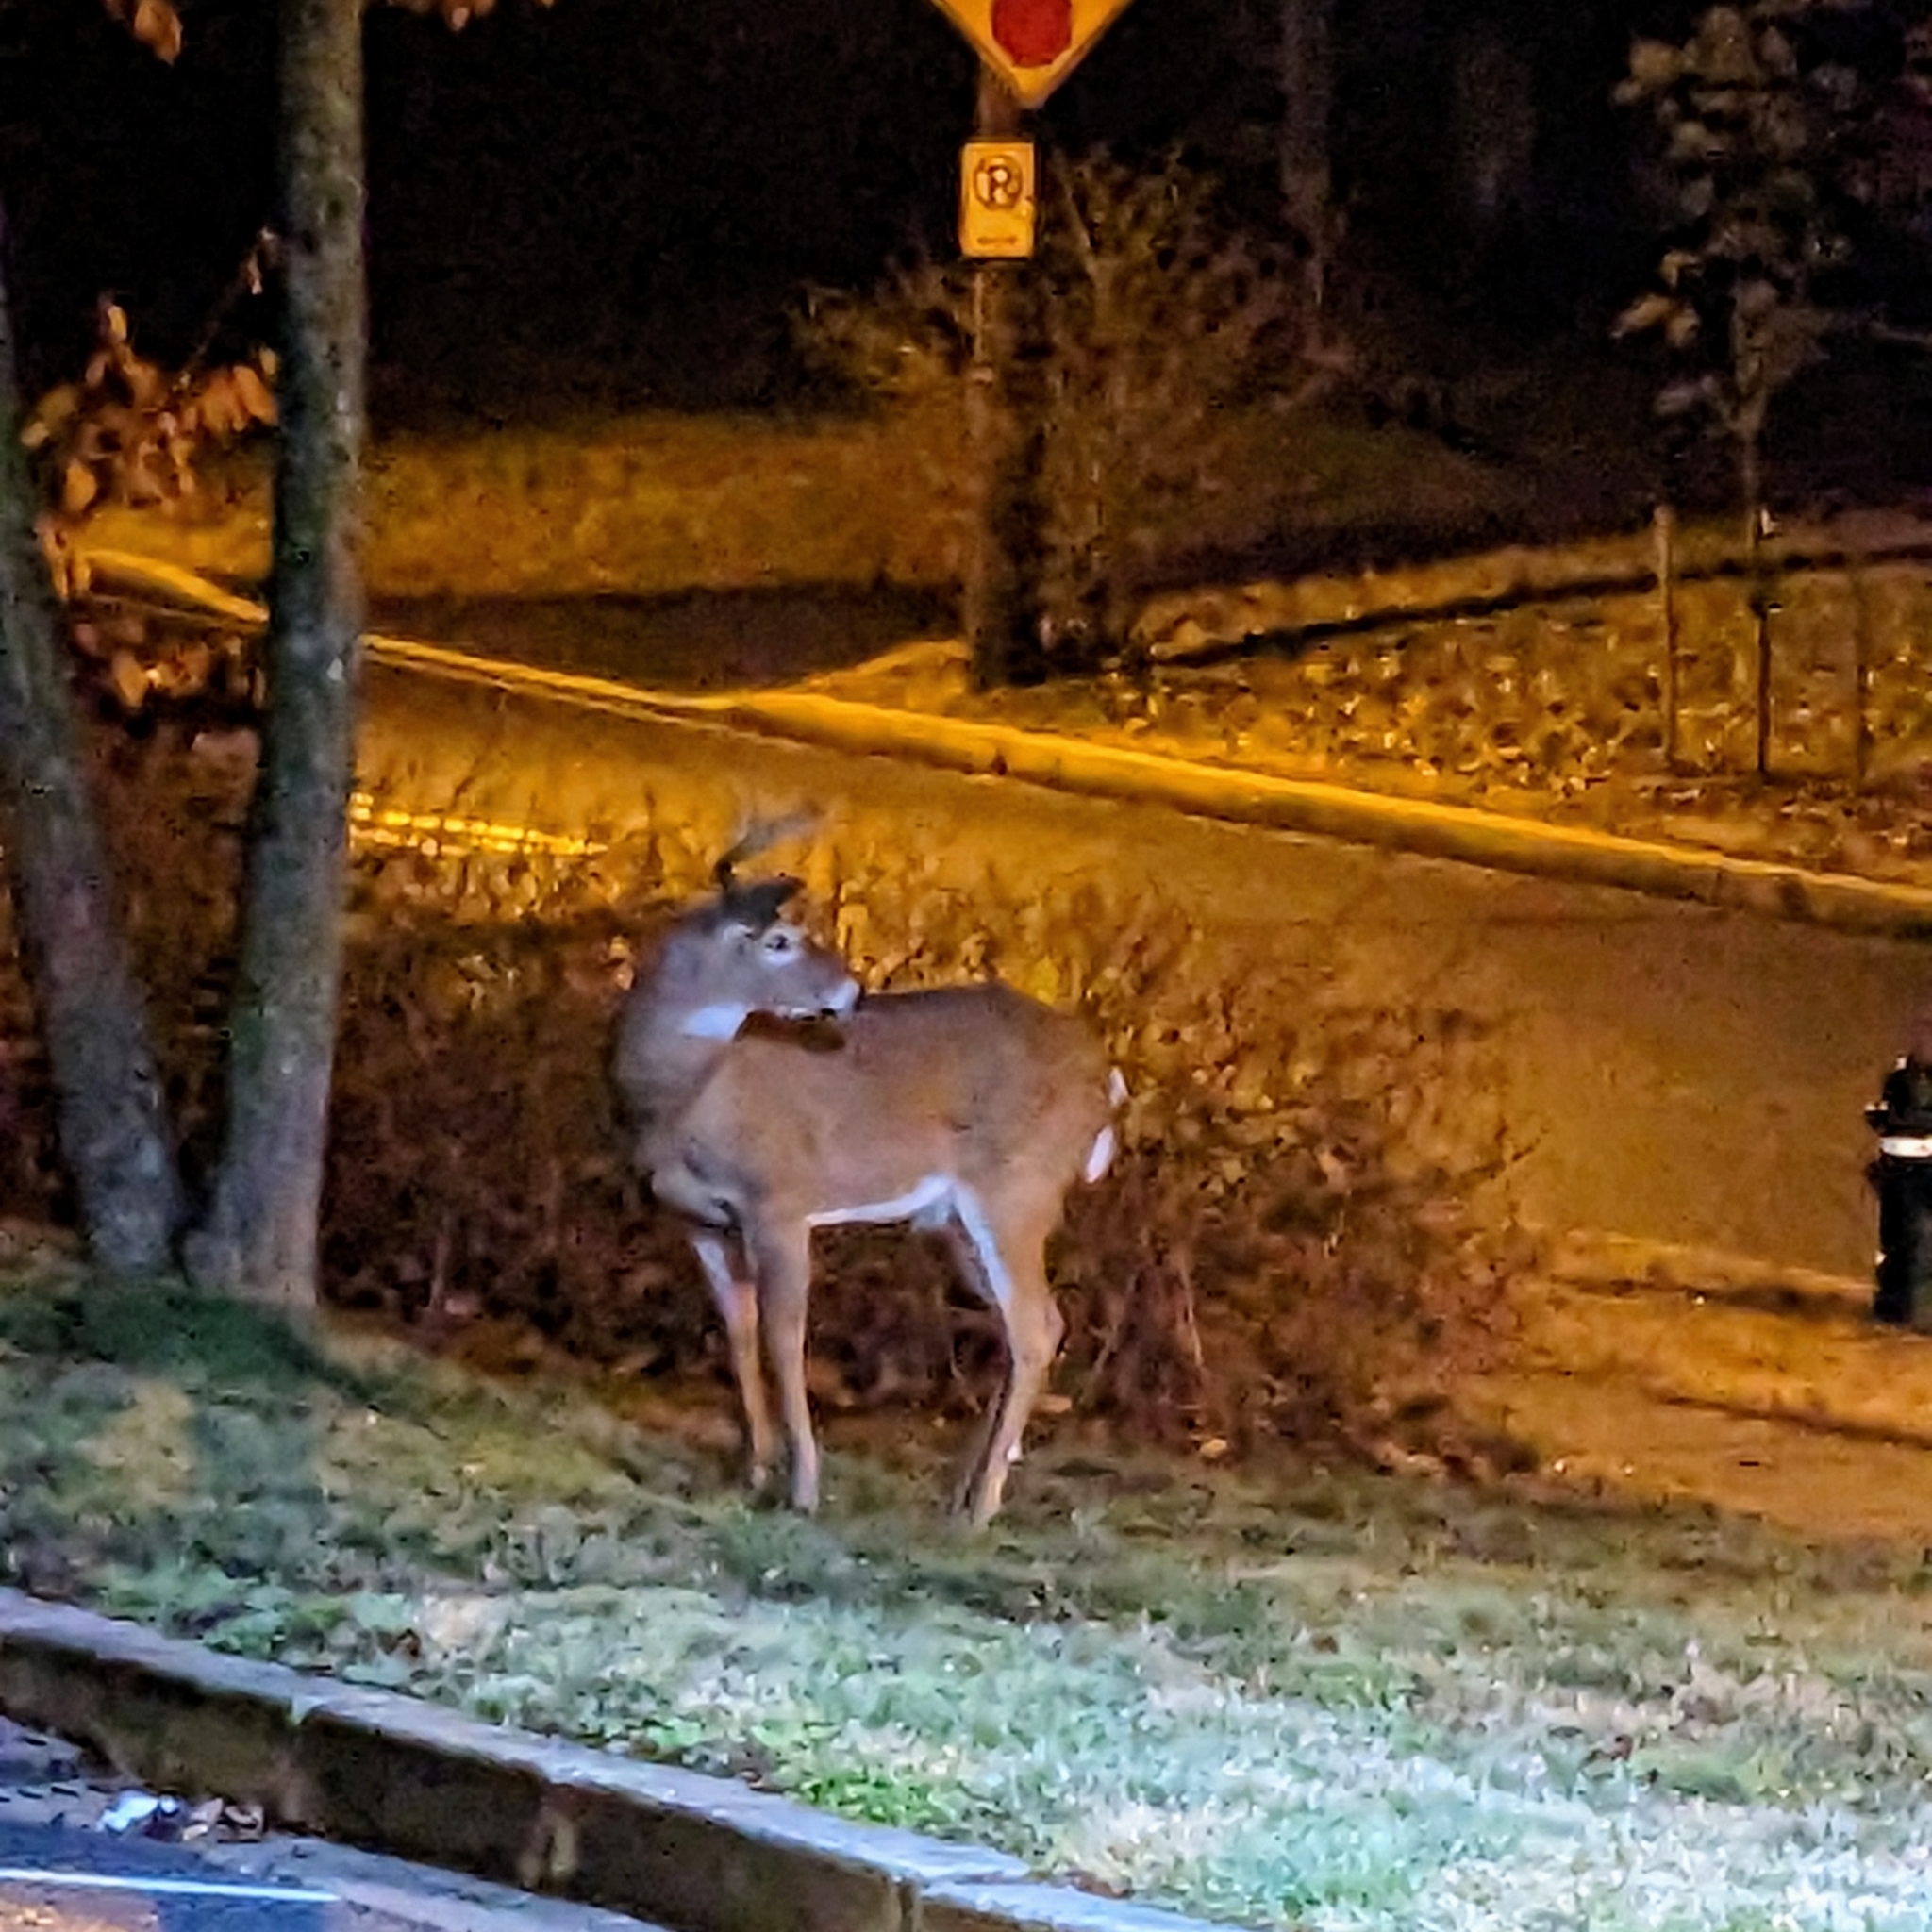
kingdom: Animalia
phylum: Chordata
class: Mammalia
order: Artiodactyla
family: Cervidae
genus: Odocoileus
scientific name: Odocoileus virginianus
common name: White-tailed deer
